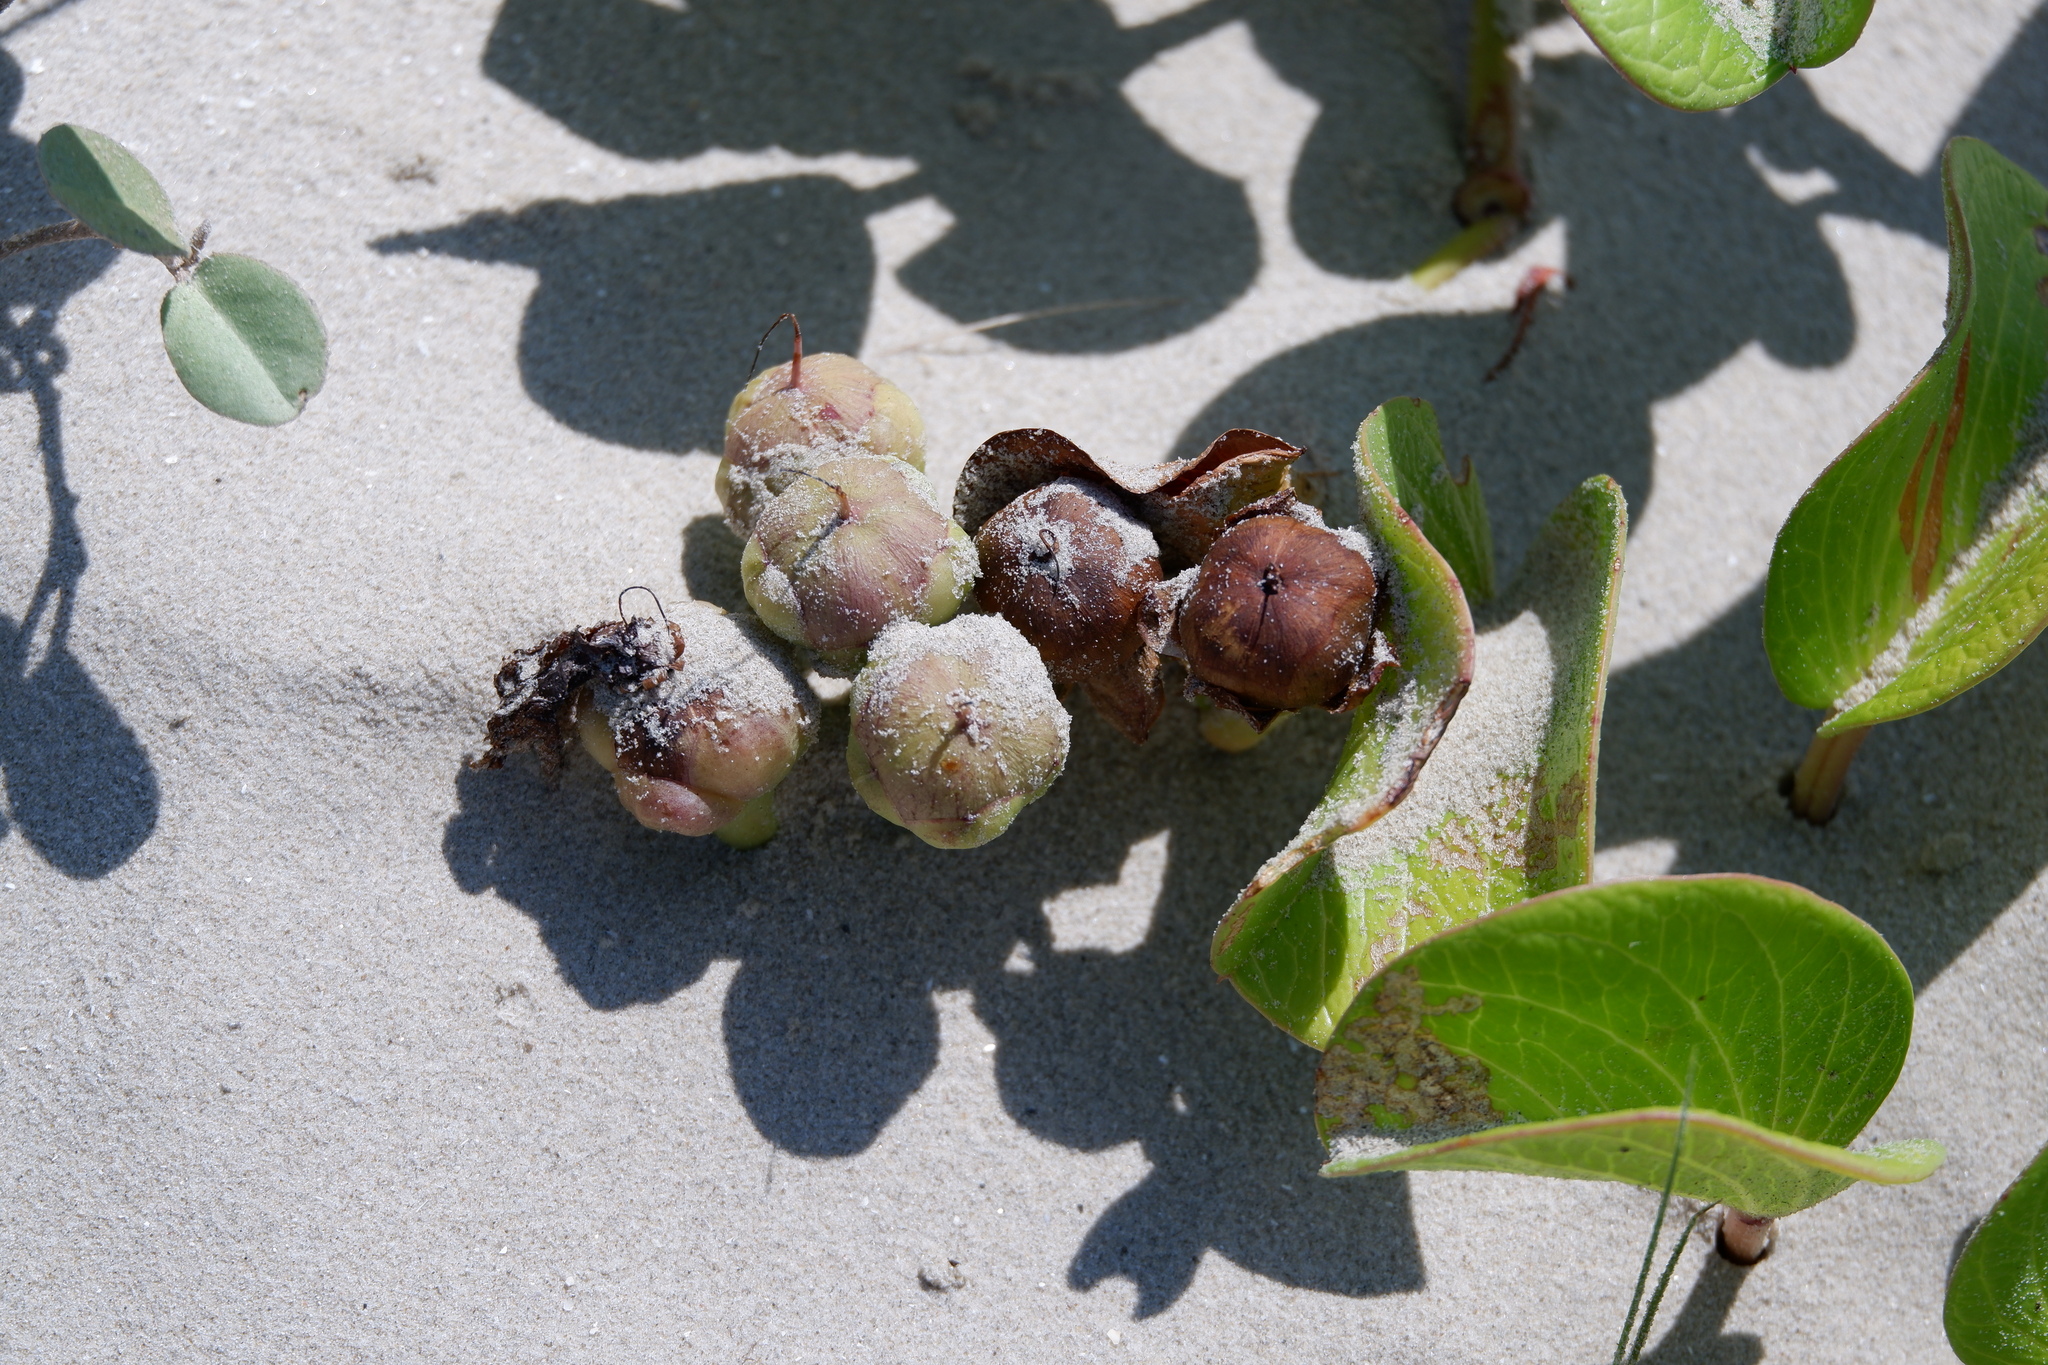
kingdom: Plantae
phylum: Tracheophyta
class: Magnoliopsida
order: Solanales
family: Convolvulaceae
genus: Ipomoea
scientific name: Ipomoea pes-caprae
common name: Beach morning glory
